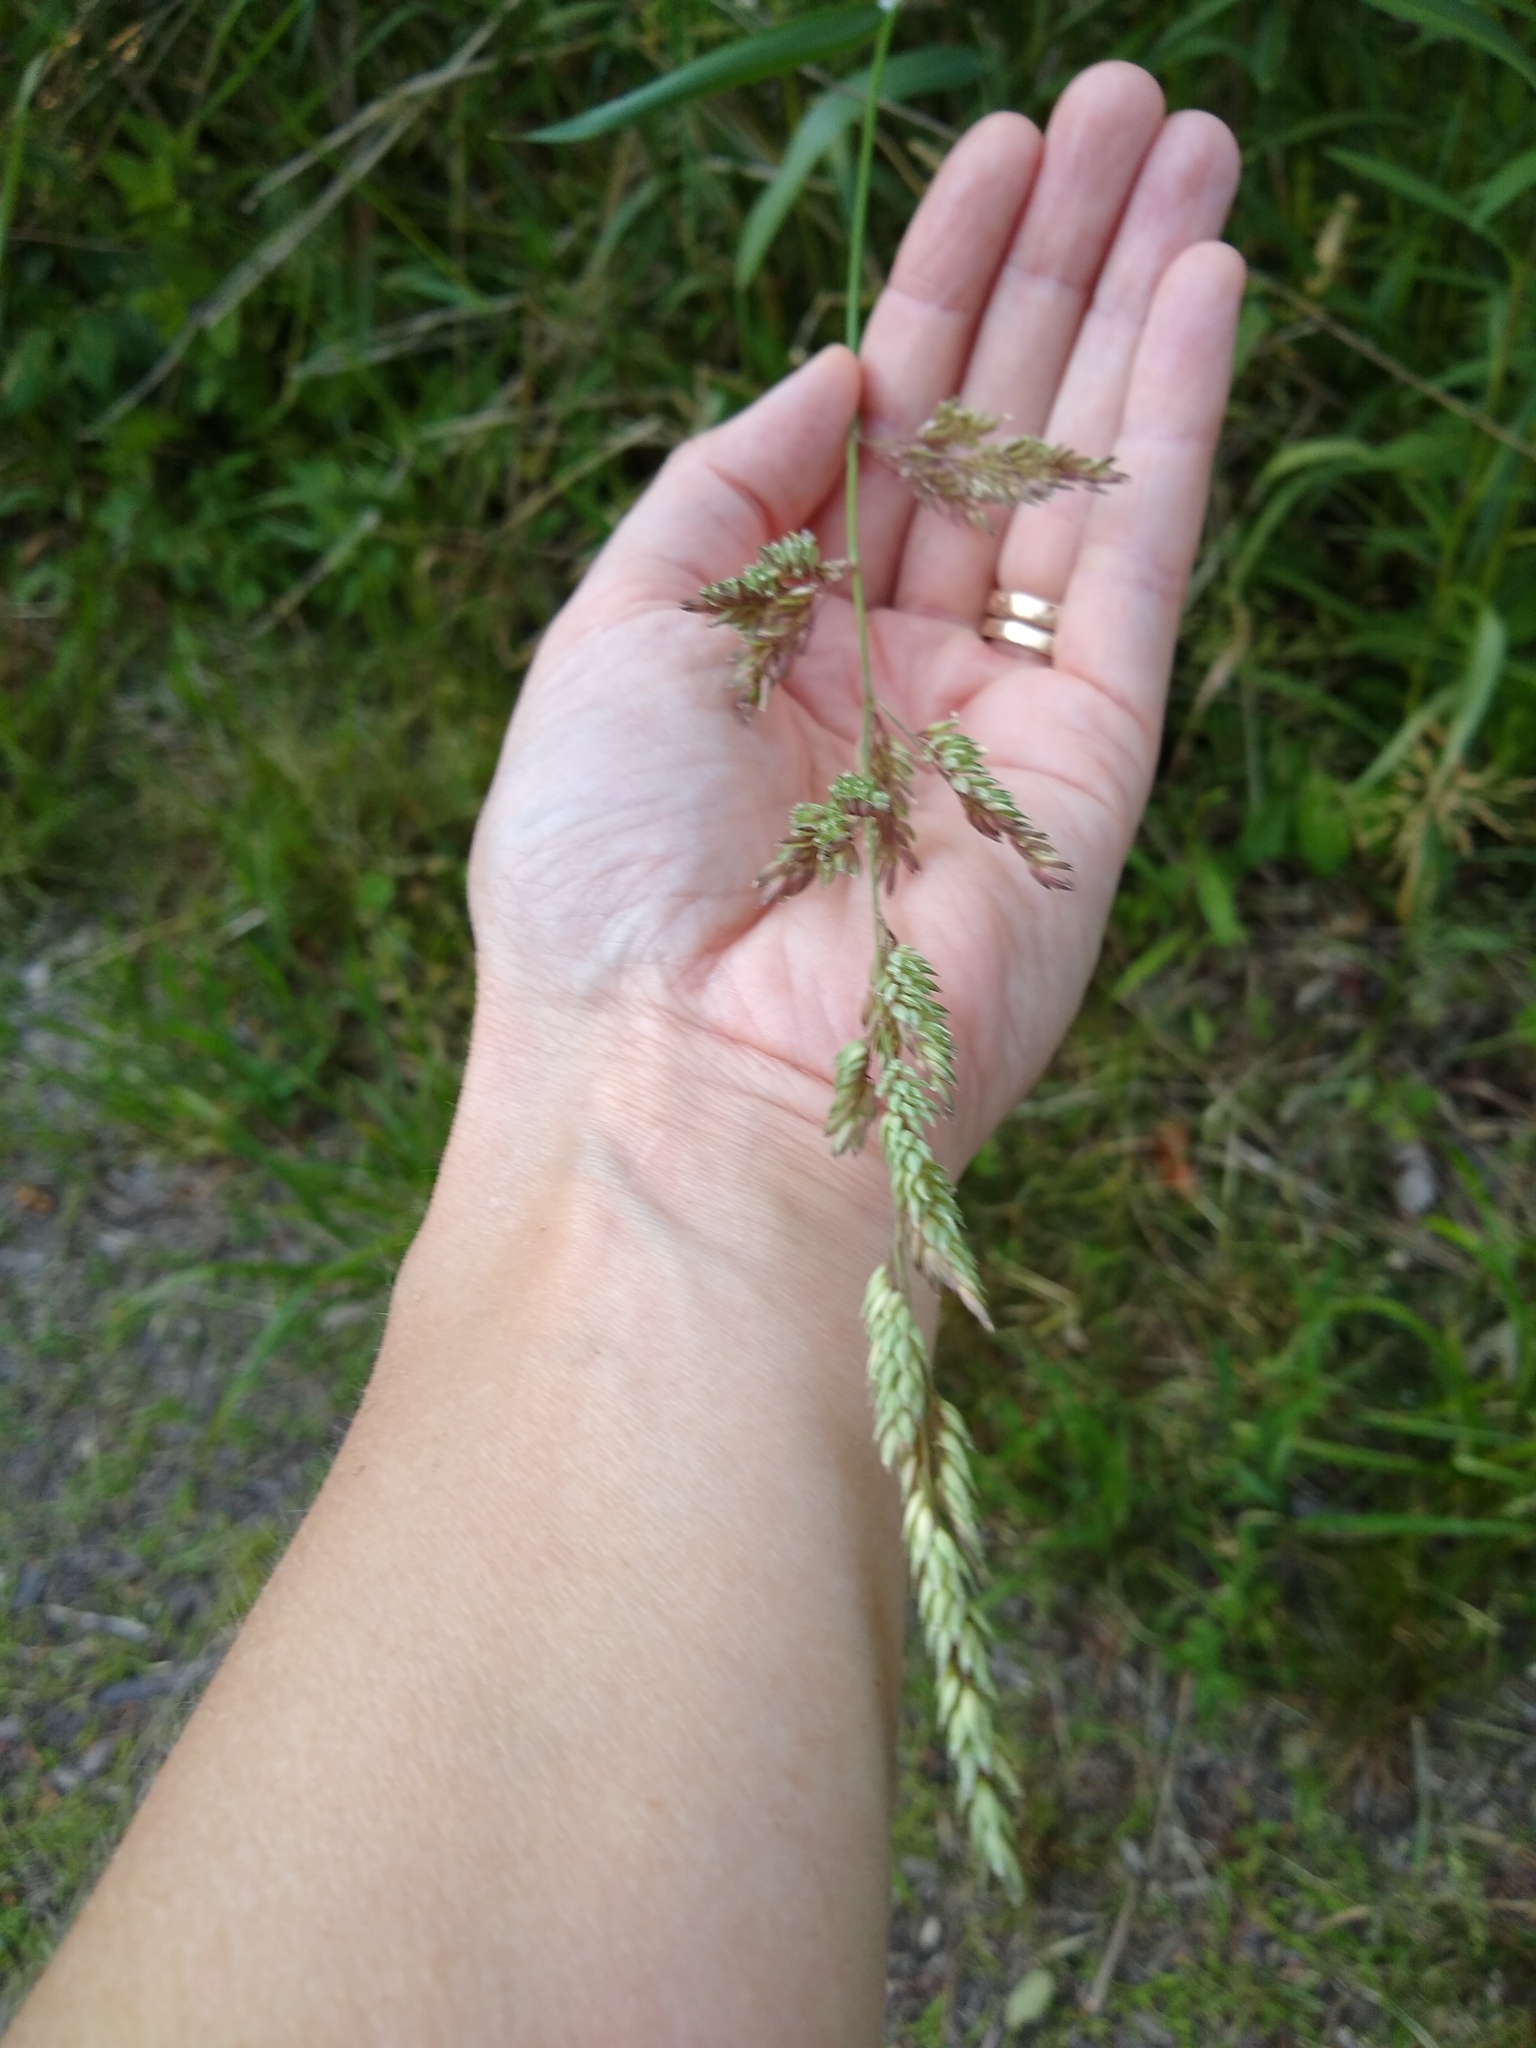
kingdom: Plantae
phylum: Tracheophyta
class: Liliopsida
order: Poales
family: Poaceae
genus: Phalaris
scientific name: Phalaris arundinacea
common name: Reed canary-grass
